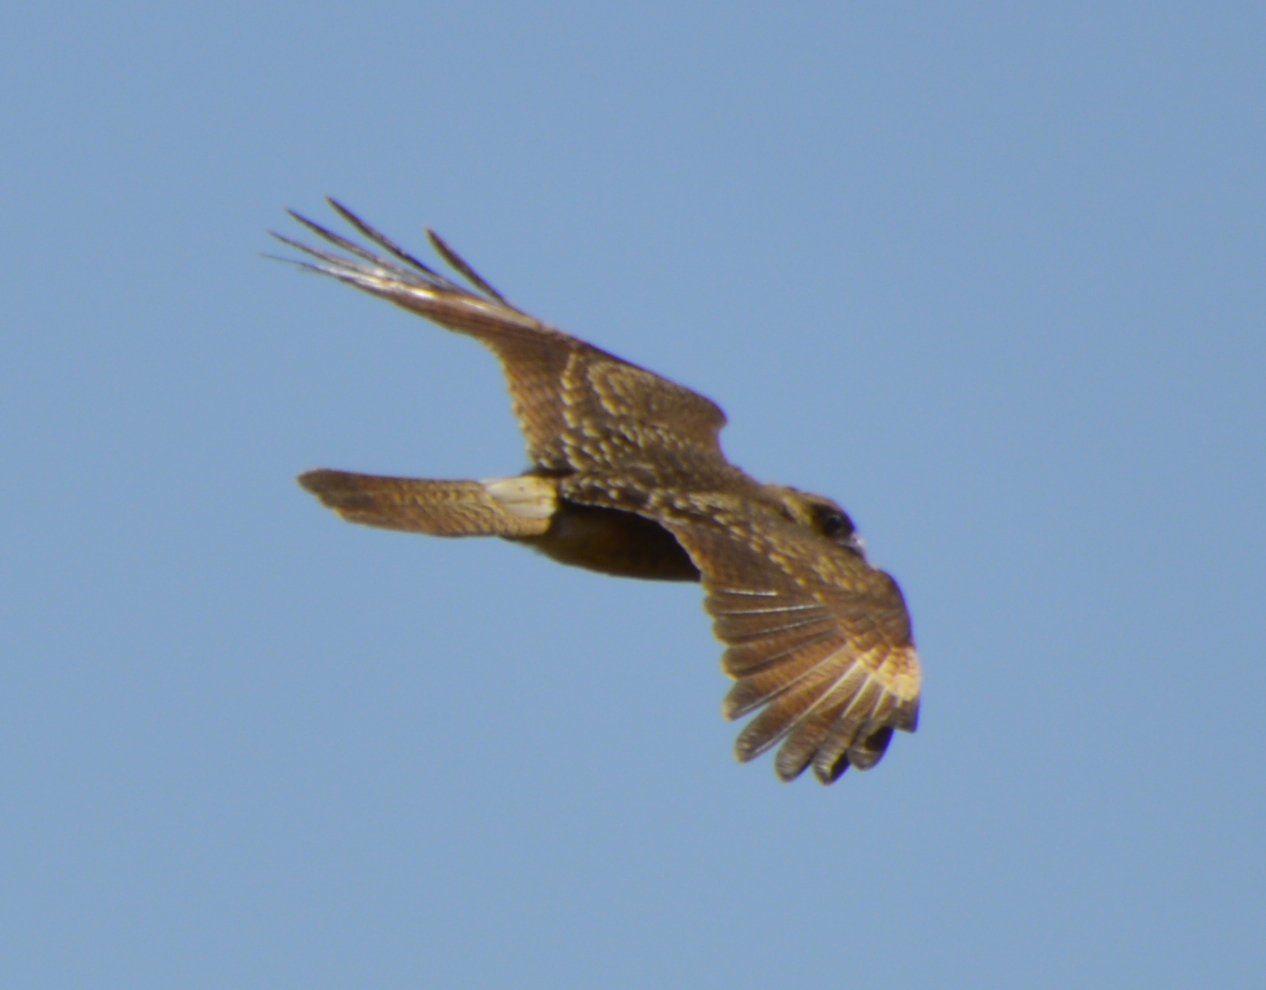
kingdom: Animalia
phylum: Chordata
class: Aves
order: Falconiformes
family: Falconidae
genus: Daptrius
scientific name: Daptrius
